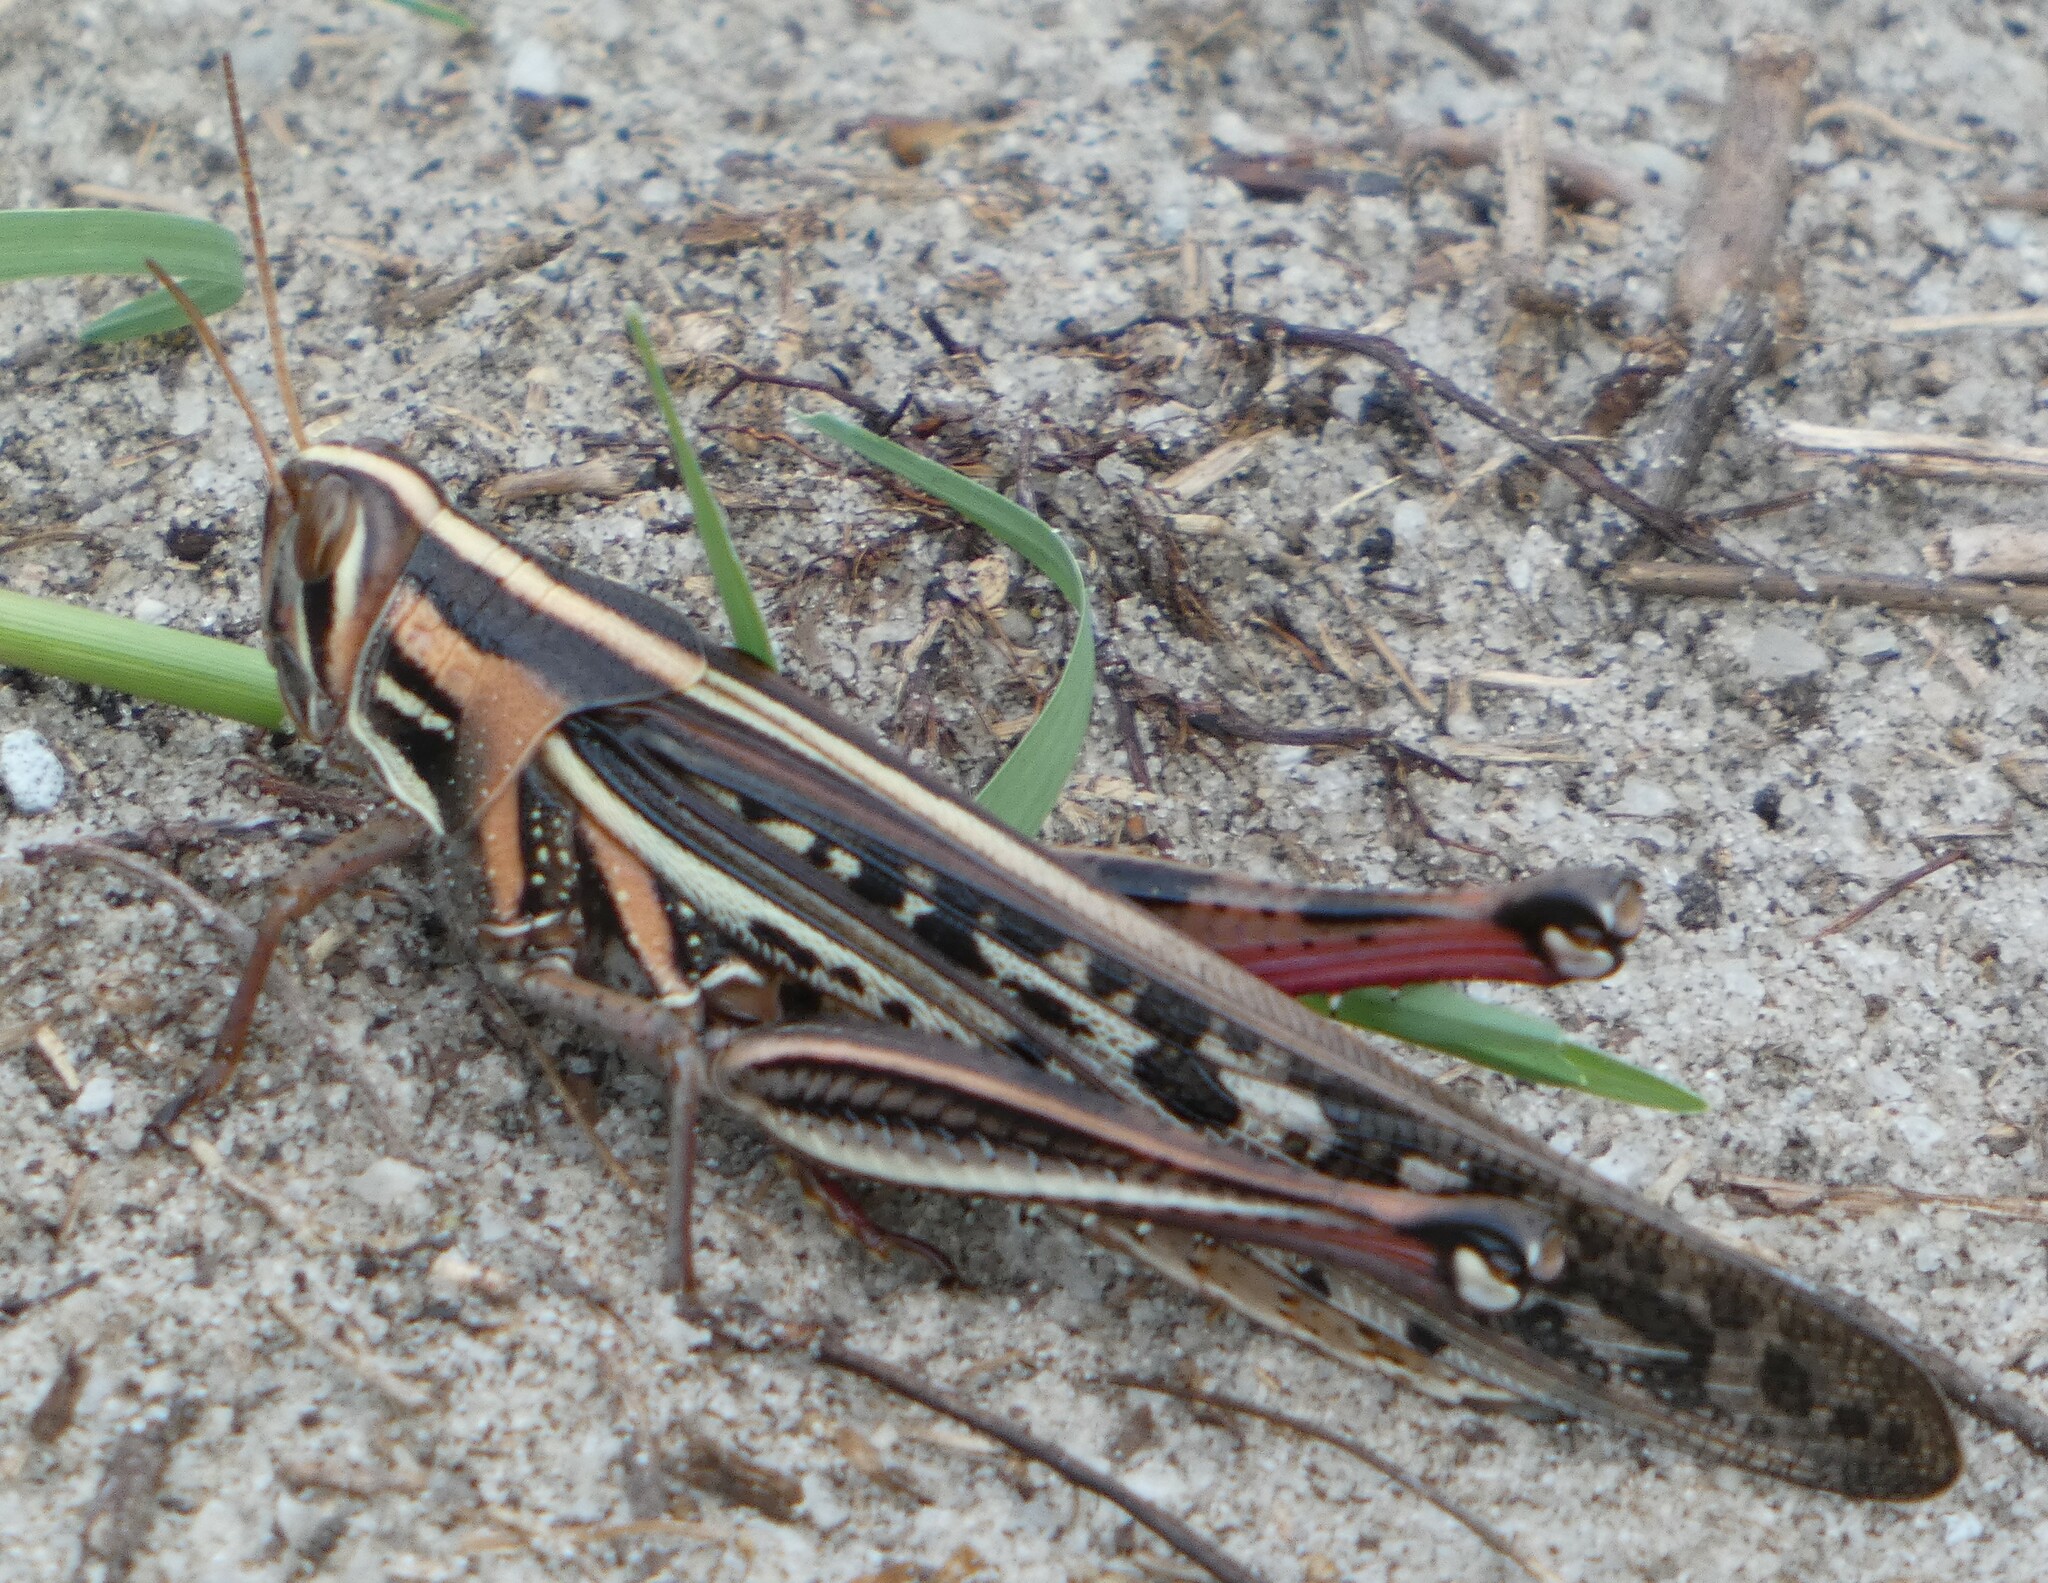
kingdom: Animalia
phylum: Arthropoda
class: Insecta
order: Orthoptera
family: Acrididae
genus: Schistocerca
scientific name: Schistocerca americana
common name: American bird locust
